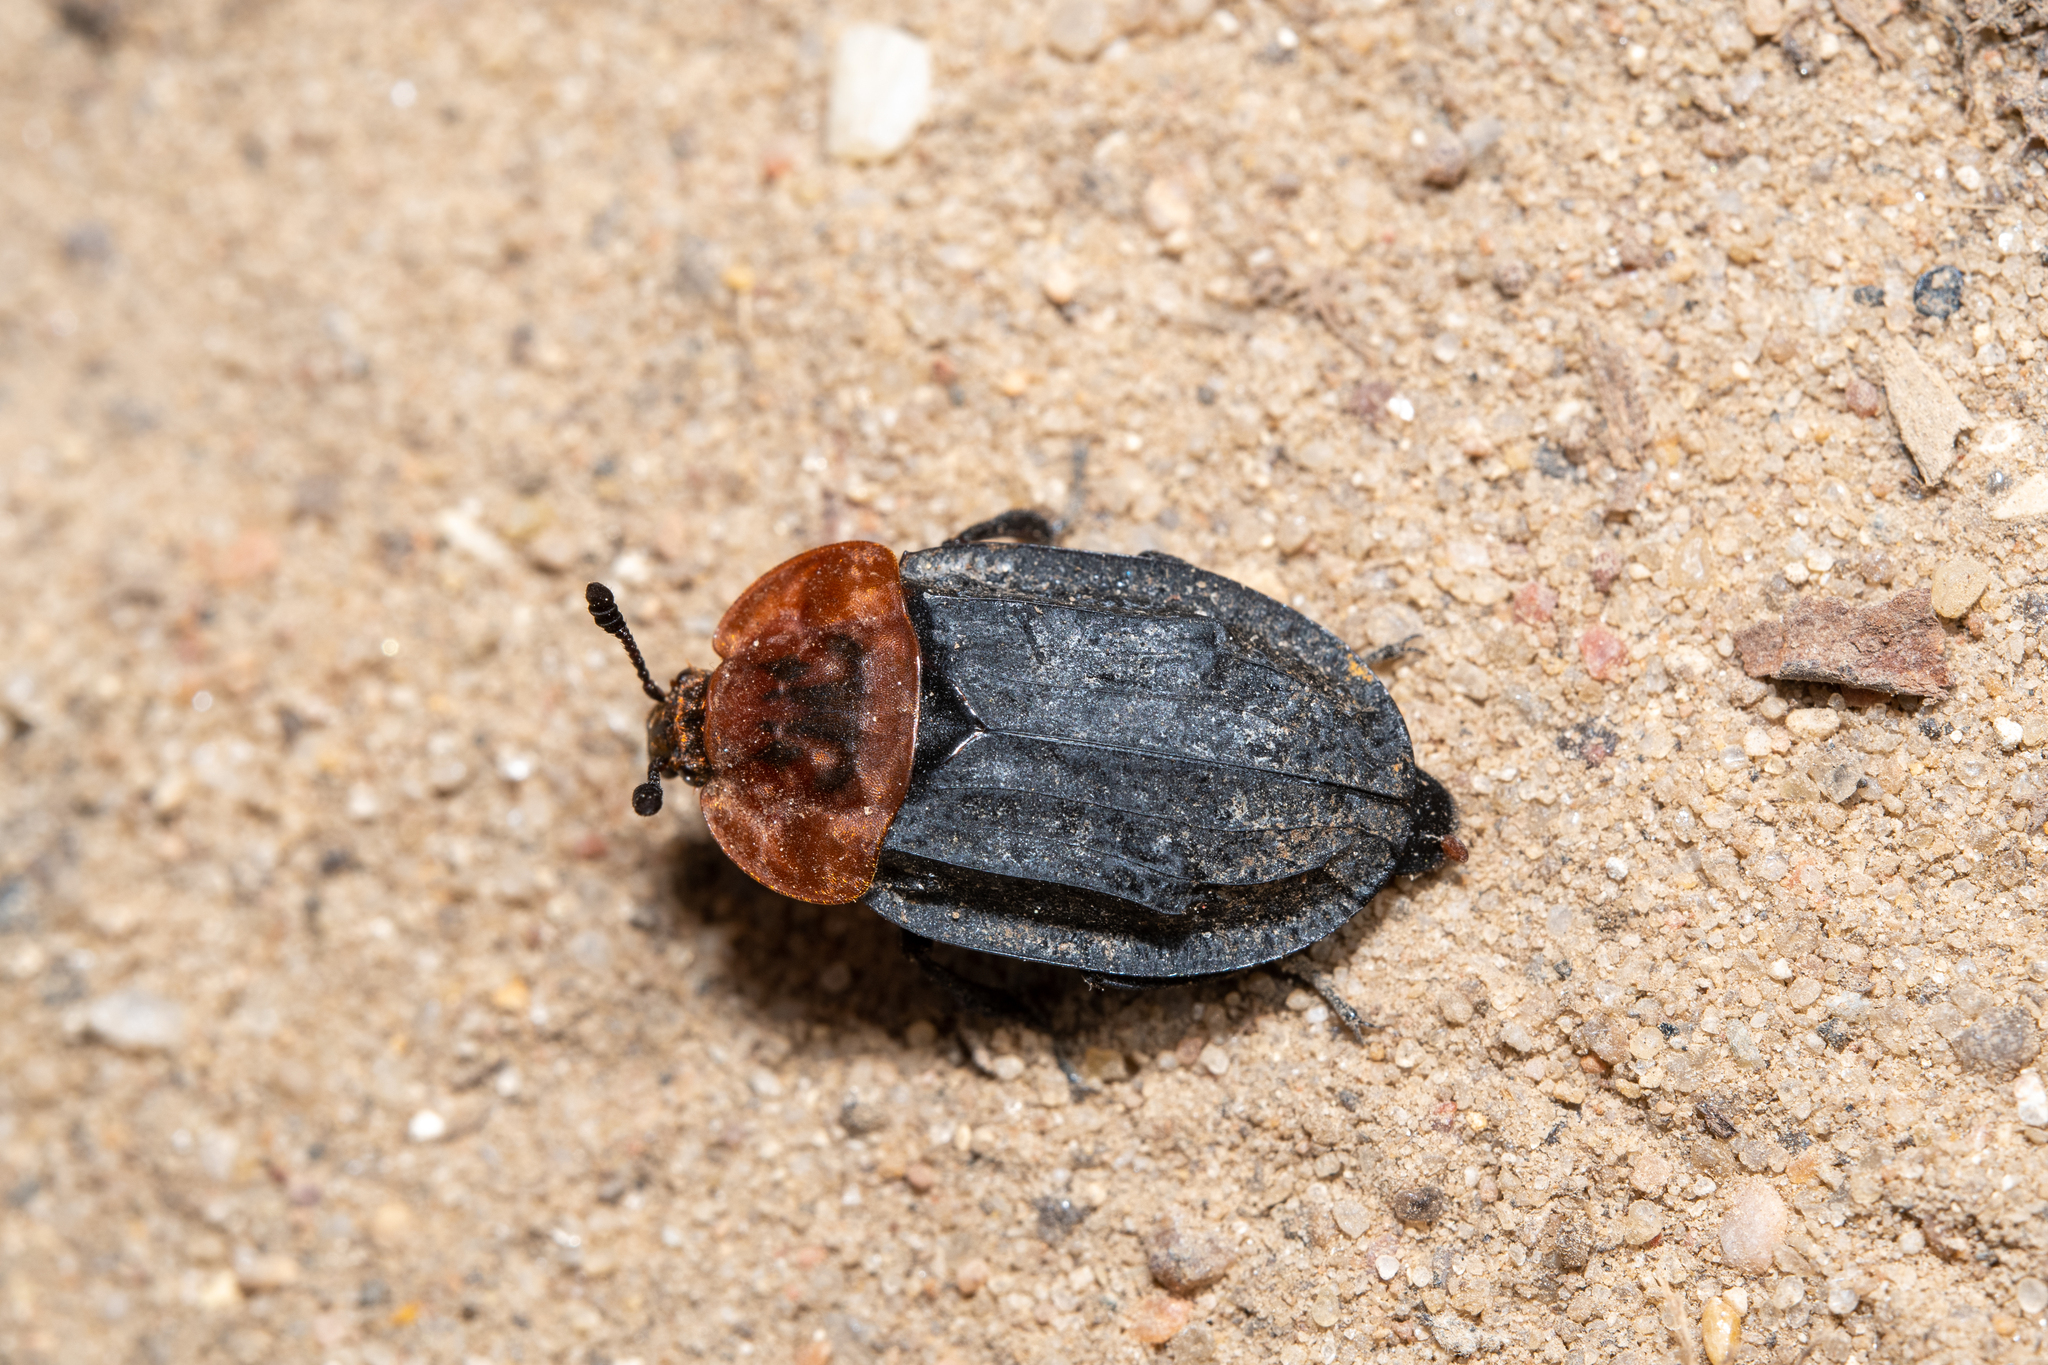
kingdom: Animalia
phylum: Arthropoda
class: Insecta
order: Coleoptera
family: Staphylinidae
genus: Oiceoptoma
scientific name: Oiceoptoma thoracicum
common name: Red-breasted carrion beetle
